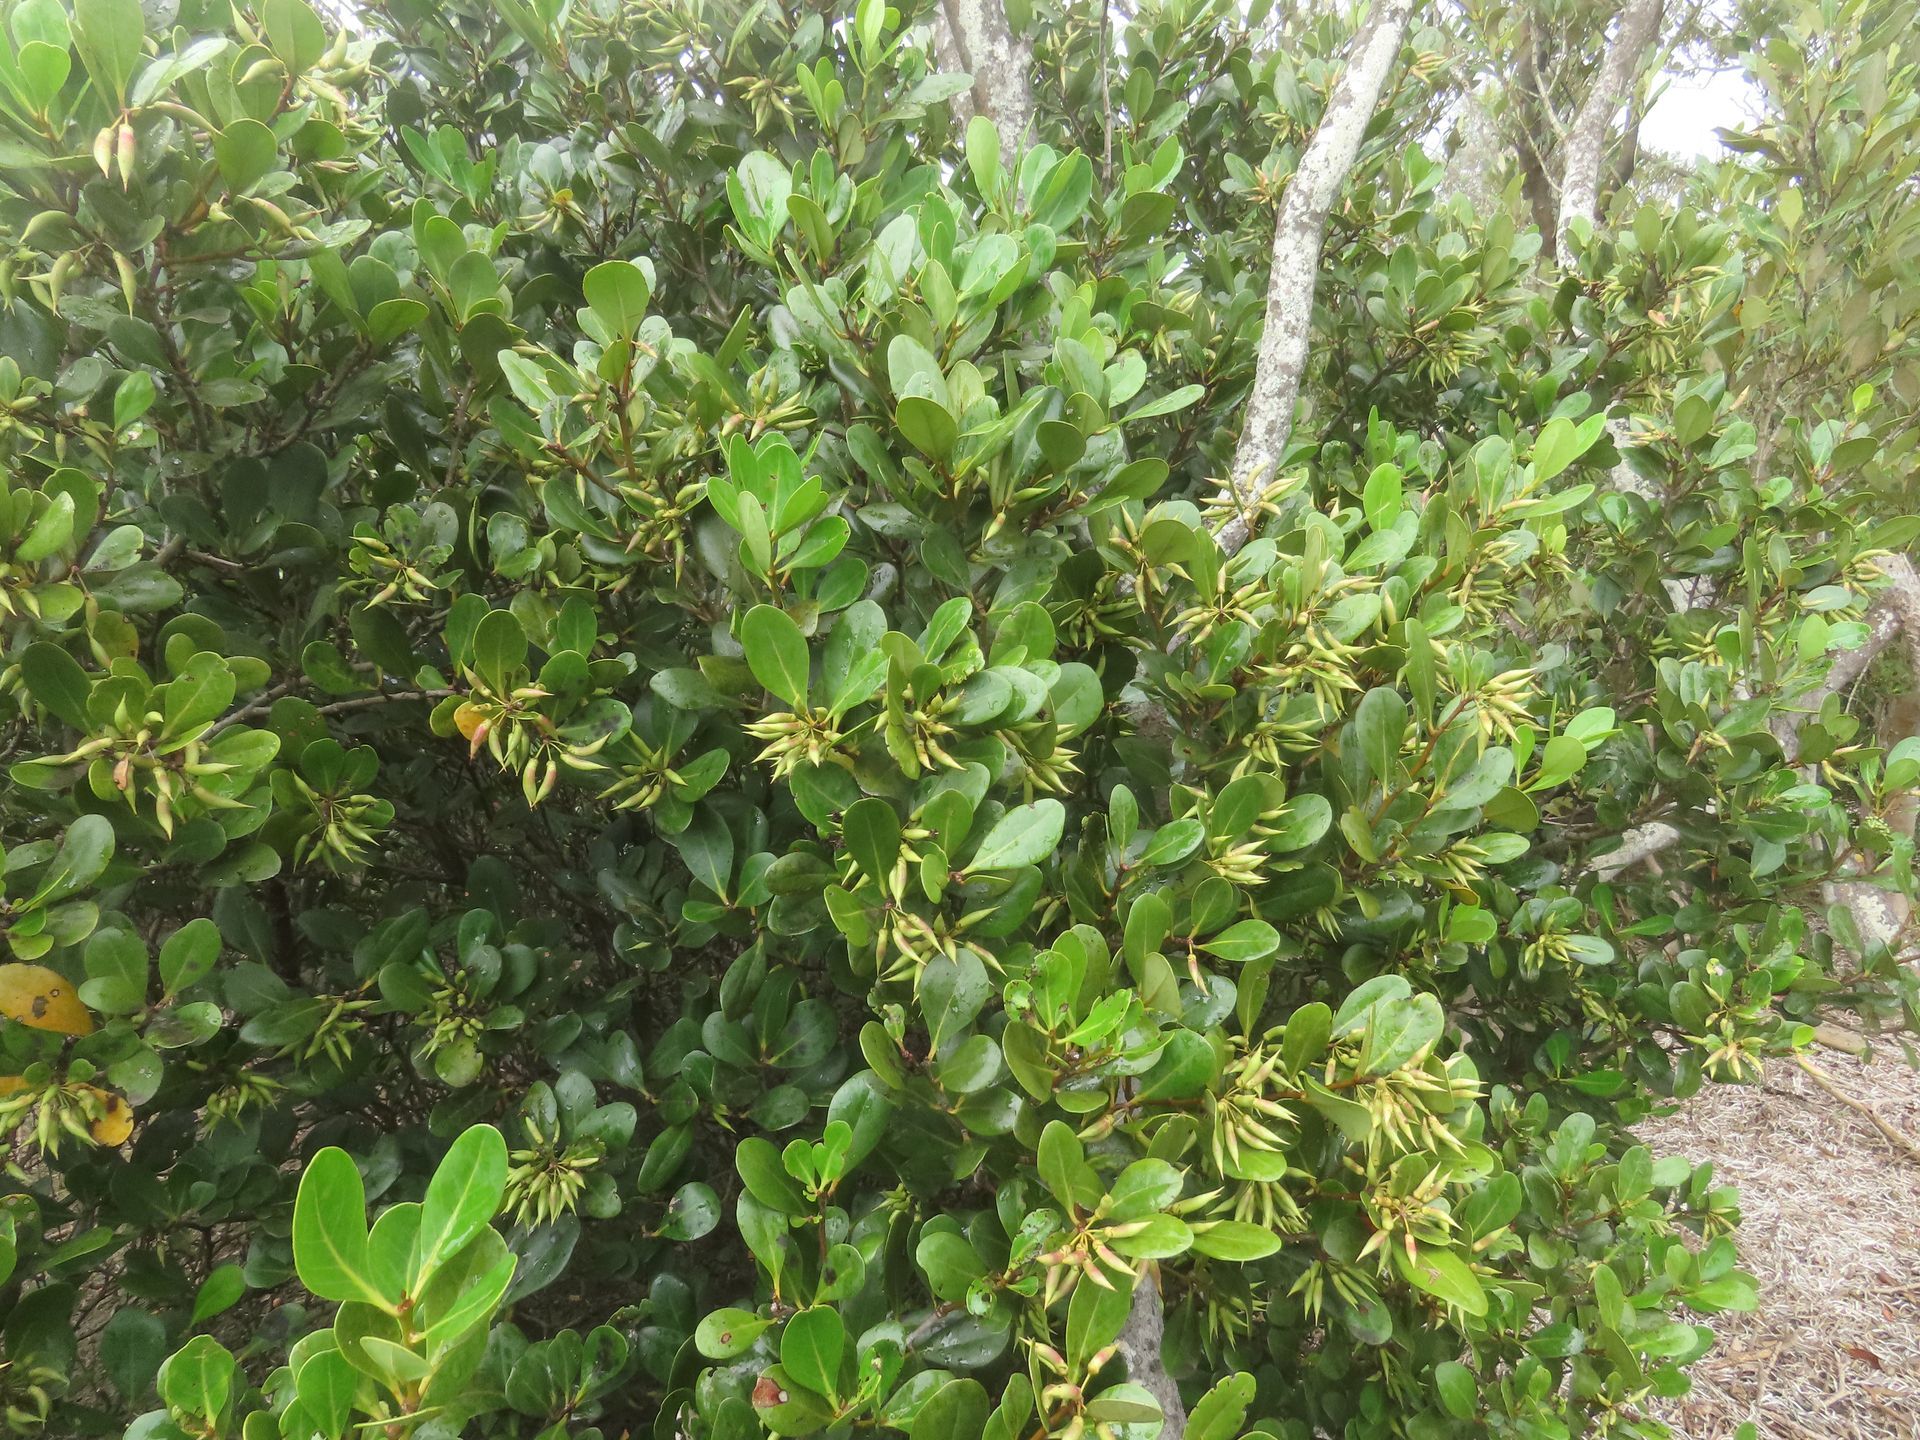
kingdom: Plantae
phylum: Tracheophyta
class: Magnoliopsida
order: Ericales
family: Primulaceae
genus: Aegiceras
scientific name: Aegiceras corniculatum
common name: River mangrove
